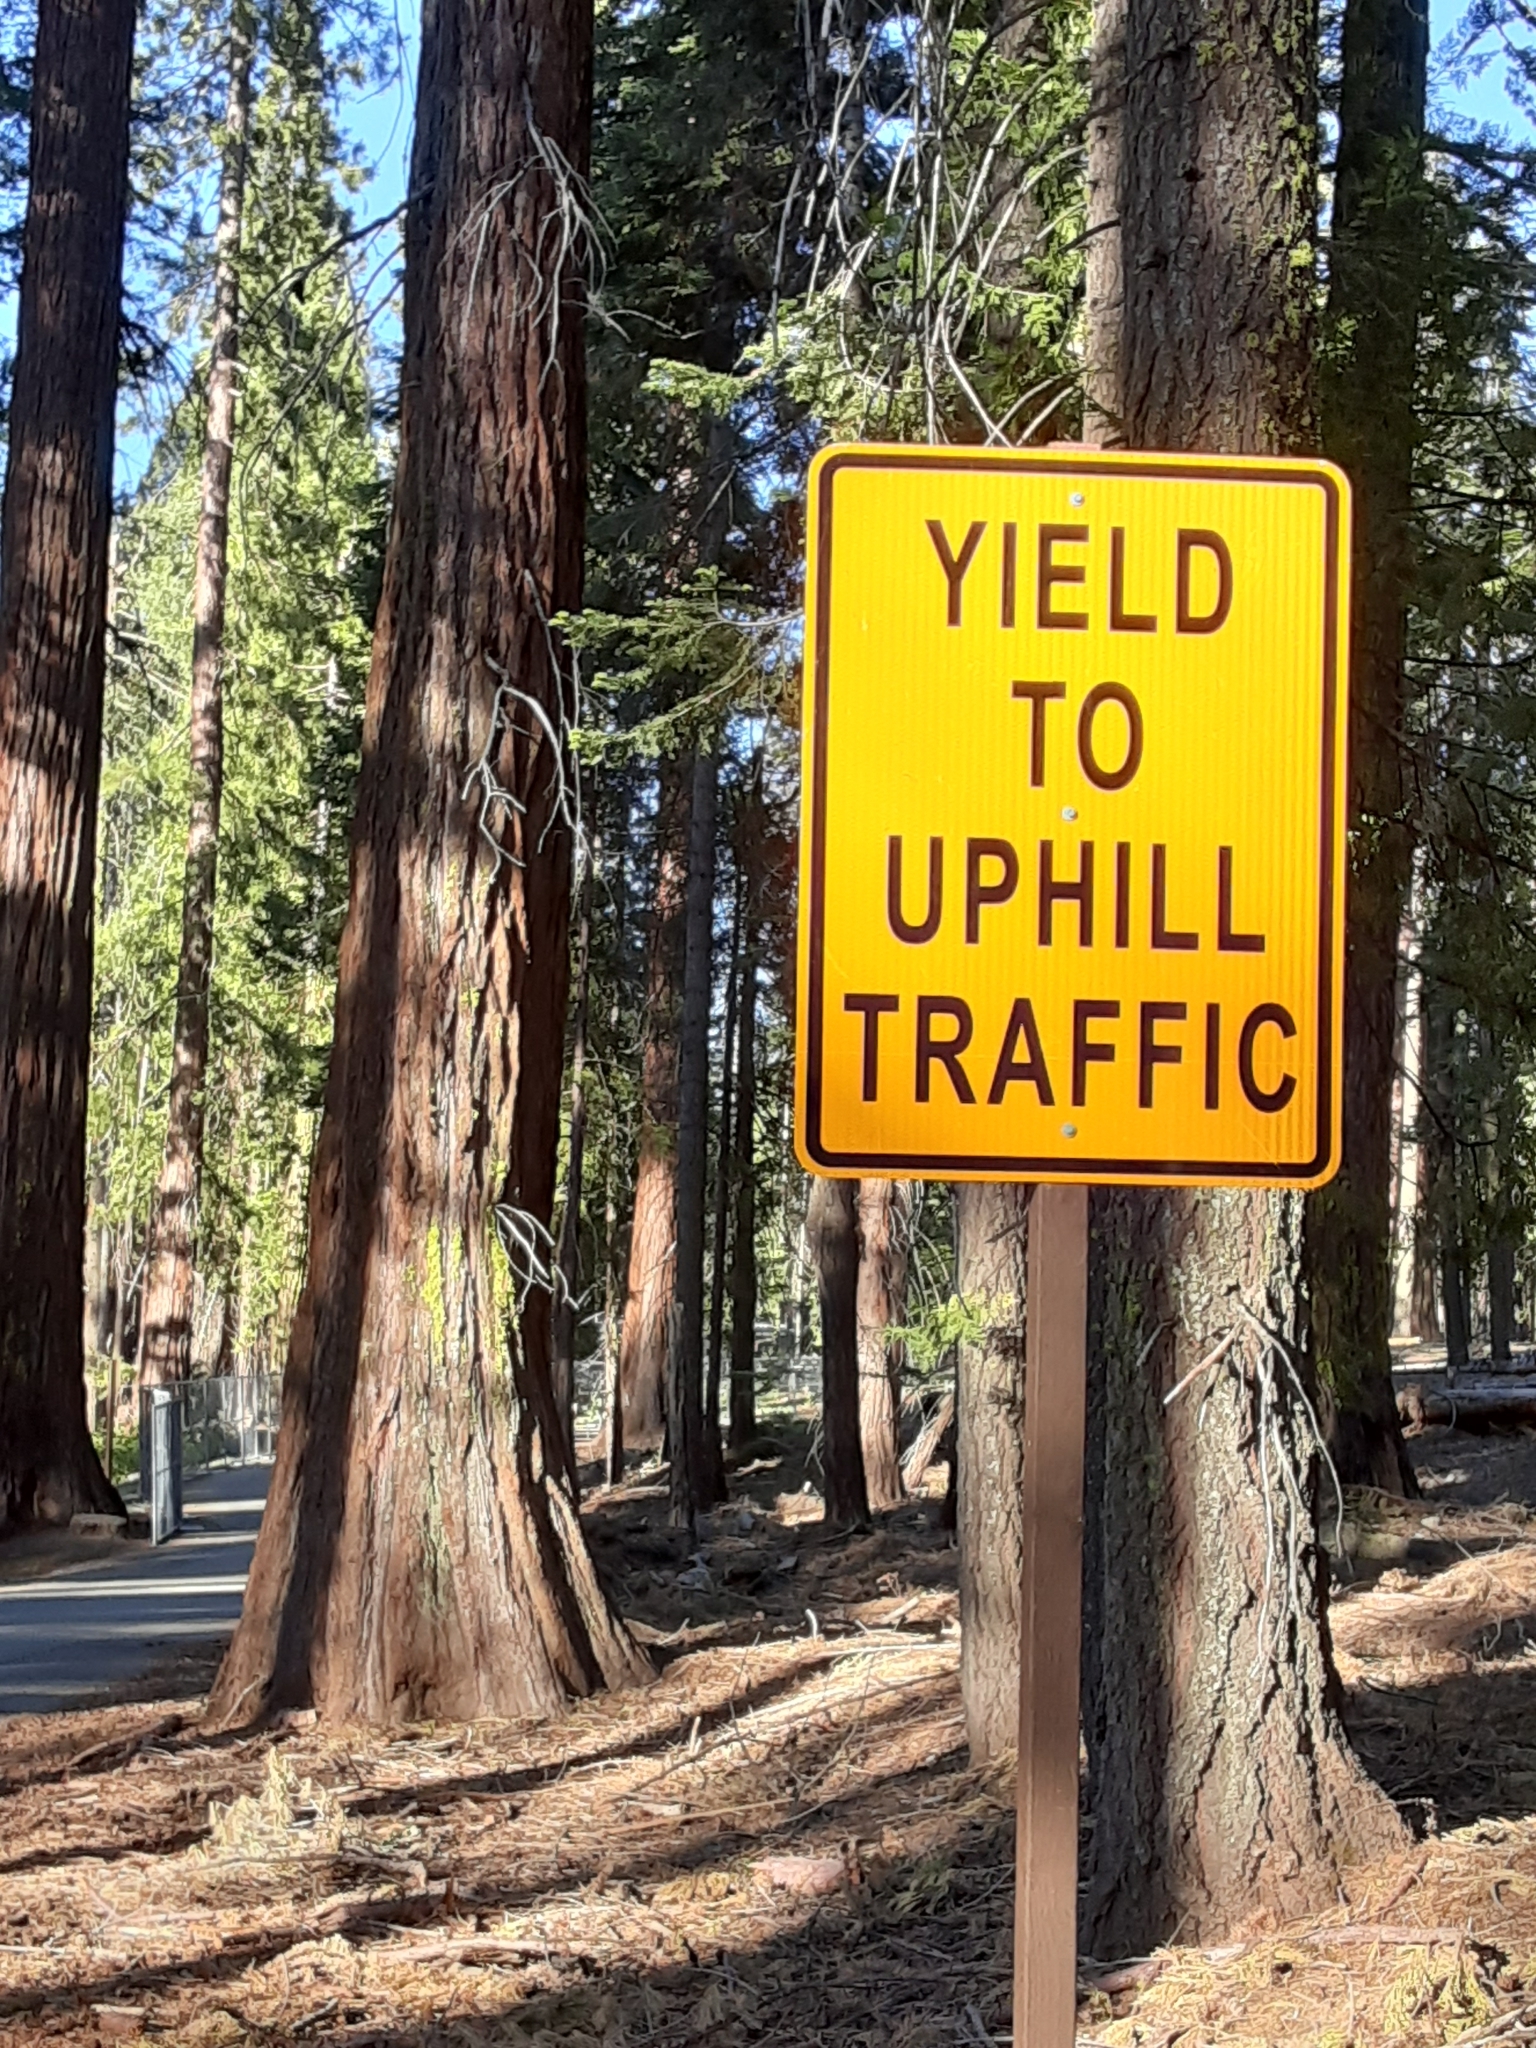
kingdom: Plantae
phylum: Tracheophyta
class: Pinopsida
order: Pinales
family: Cupressaceae
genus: Sequoiadendron
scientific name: Sequoiadendron giganteum
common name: Wellingtonia
